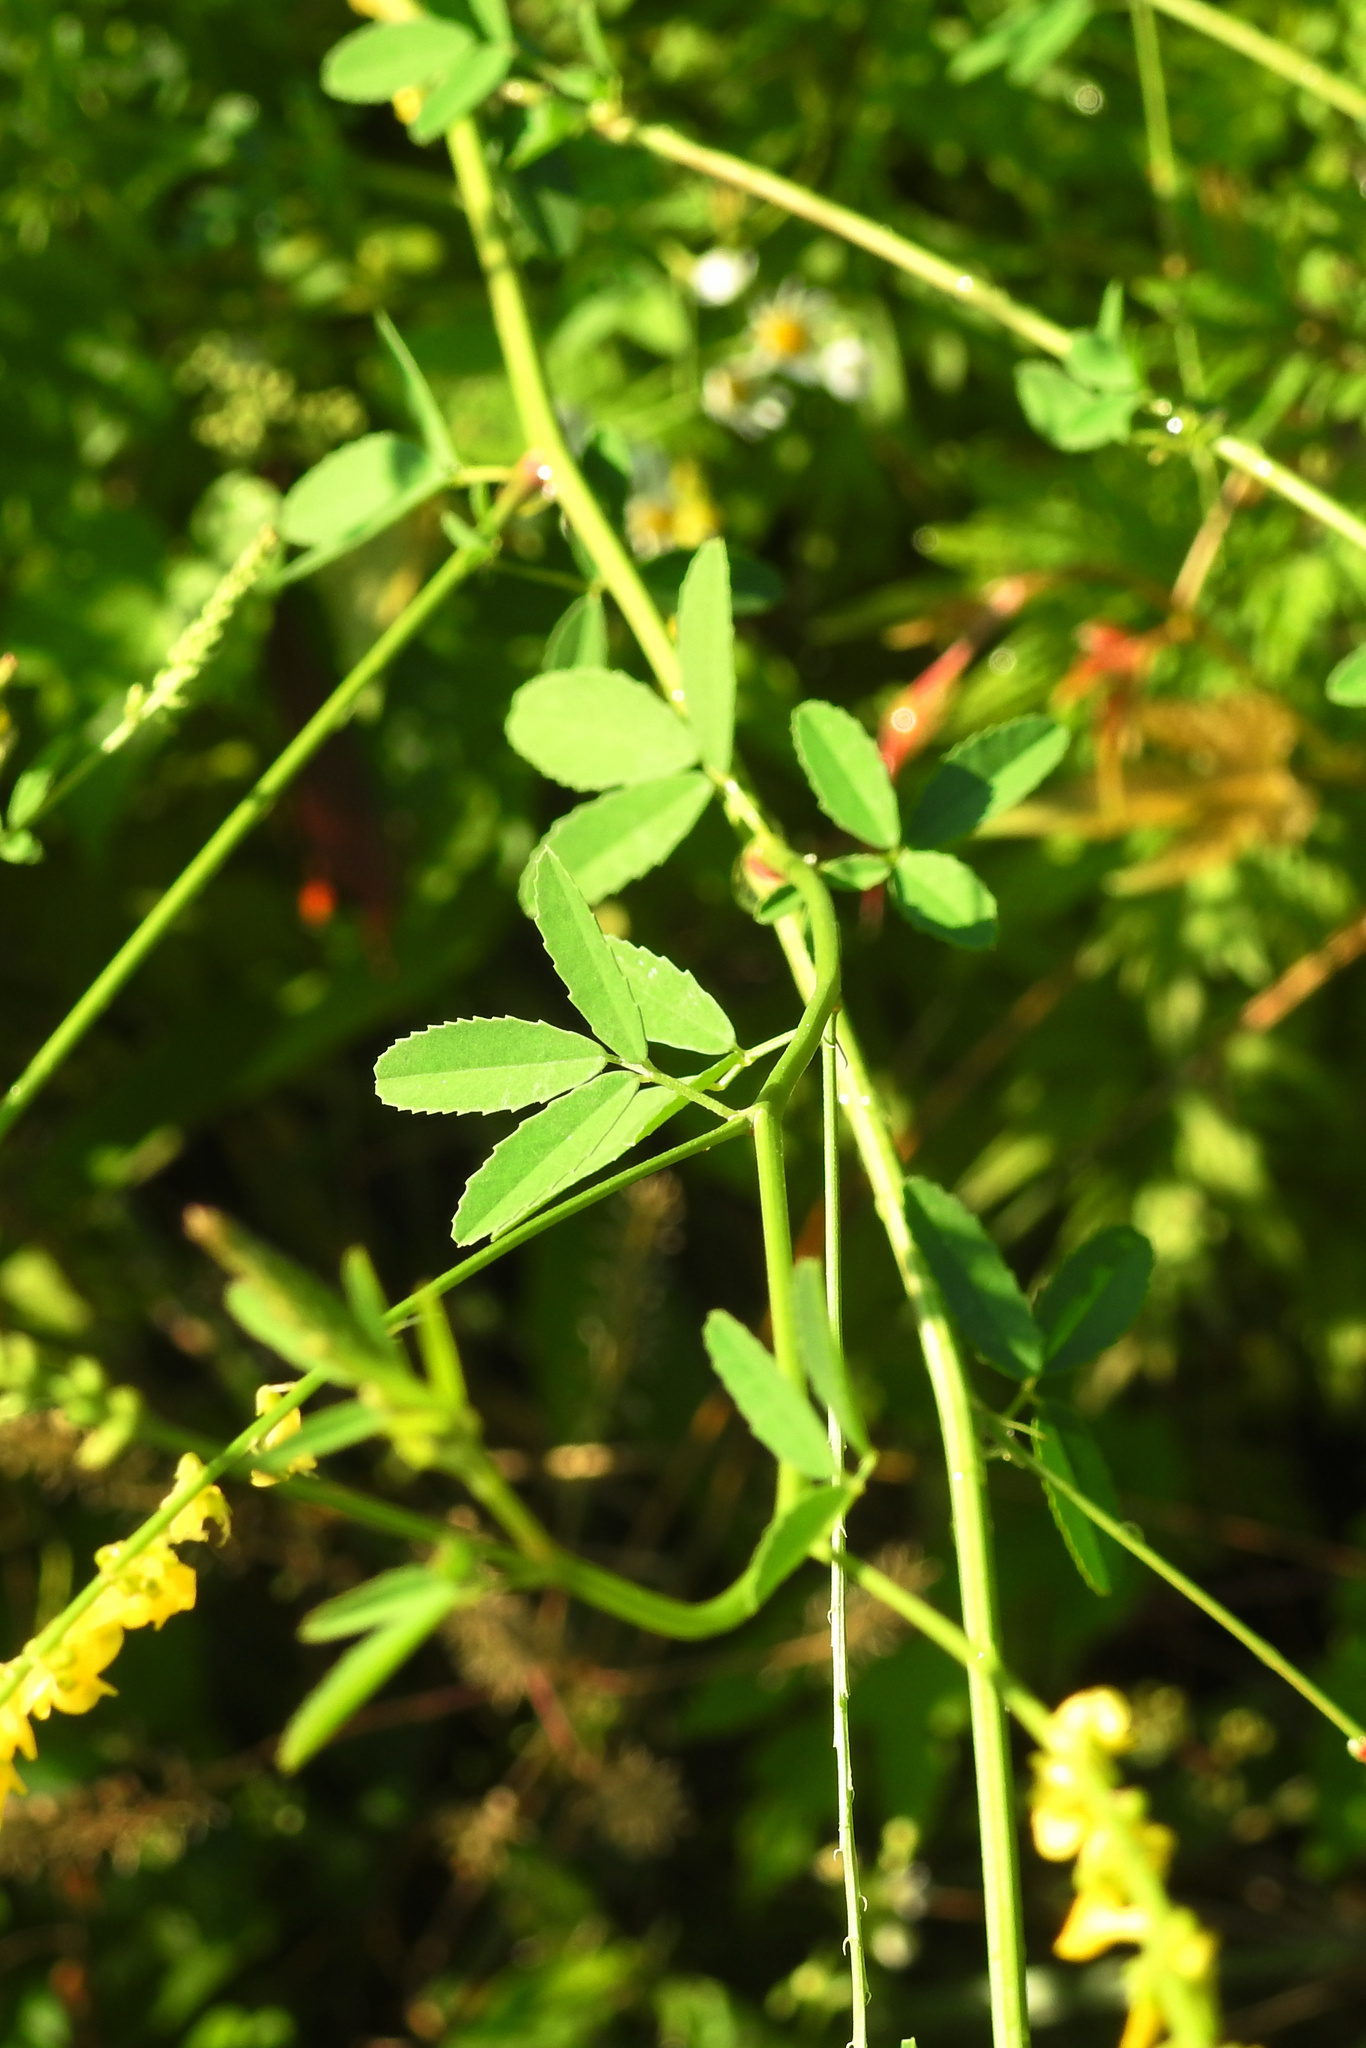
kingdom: Plantae
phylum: Tracheophyta
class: Magnoliopsida
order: Fabales
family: Fabaceae
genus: Melilotus
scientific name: Melilotus officinalis
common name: Sweetclover
